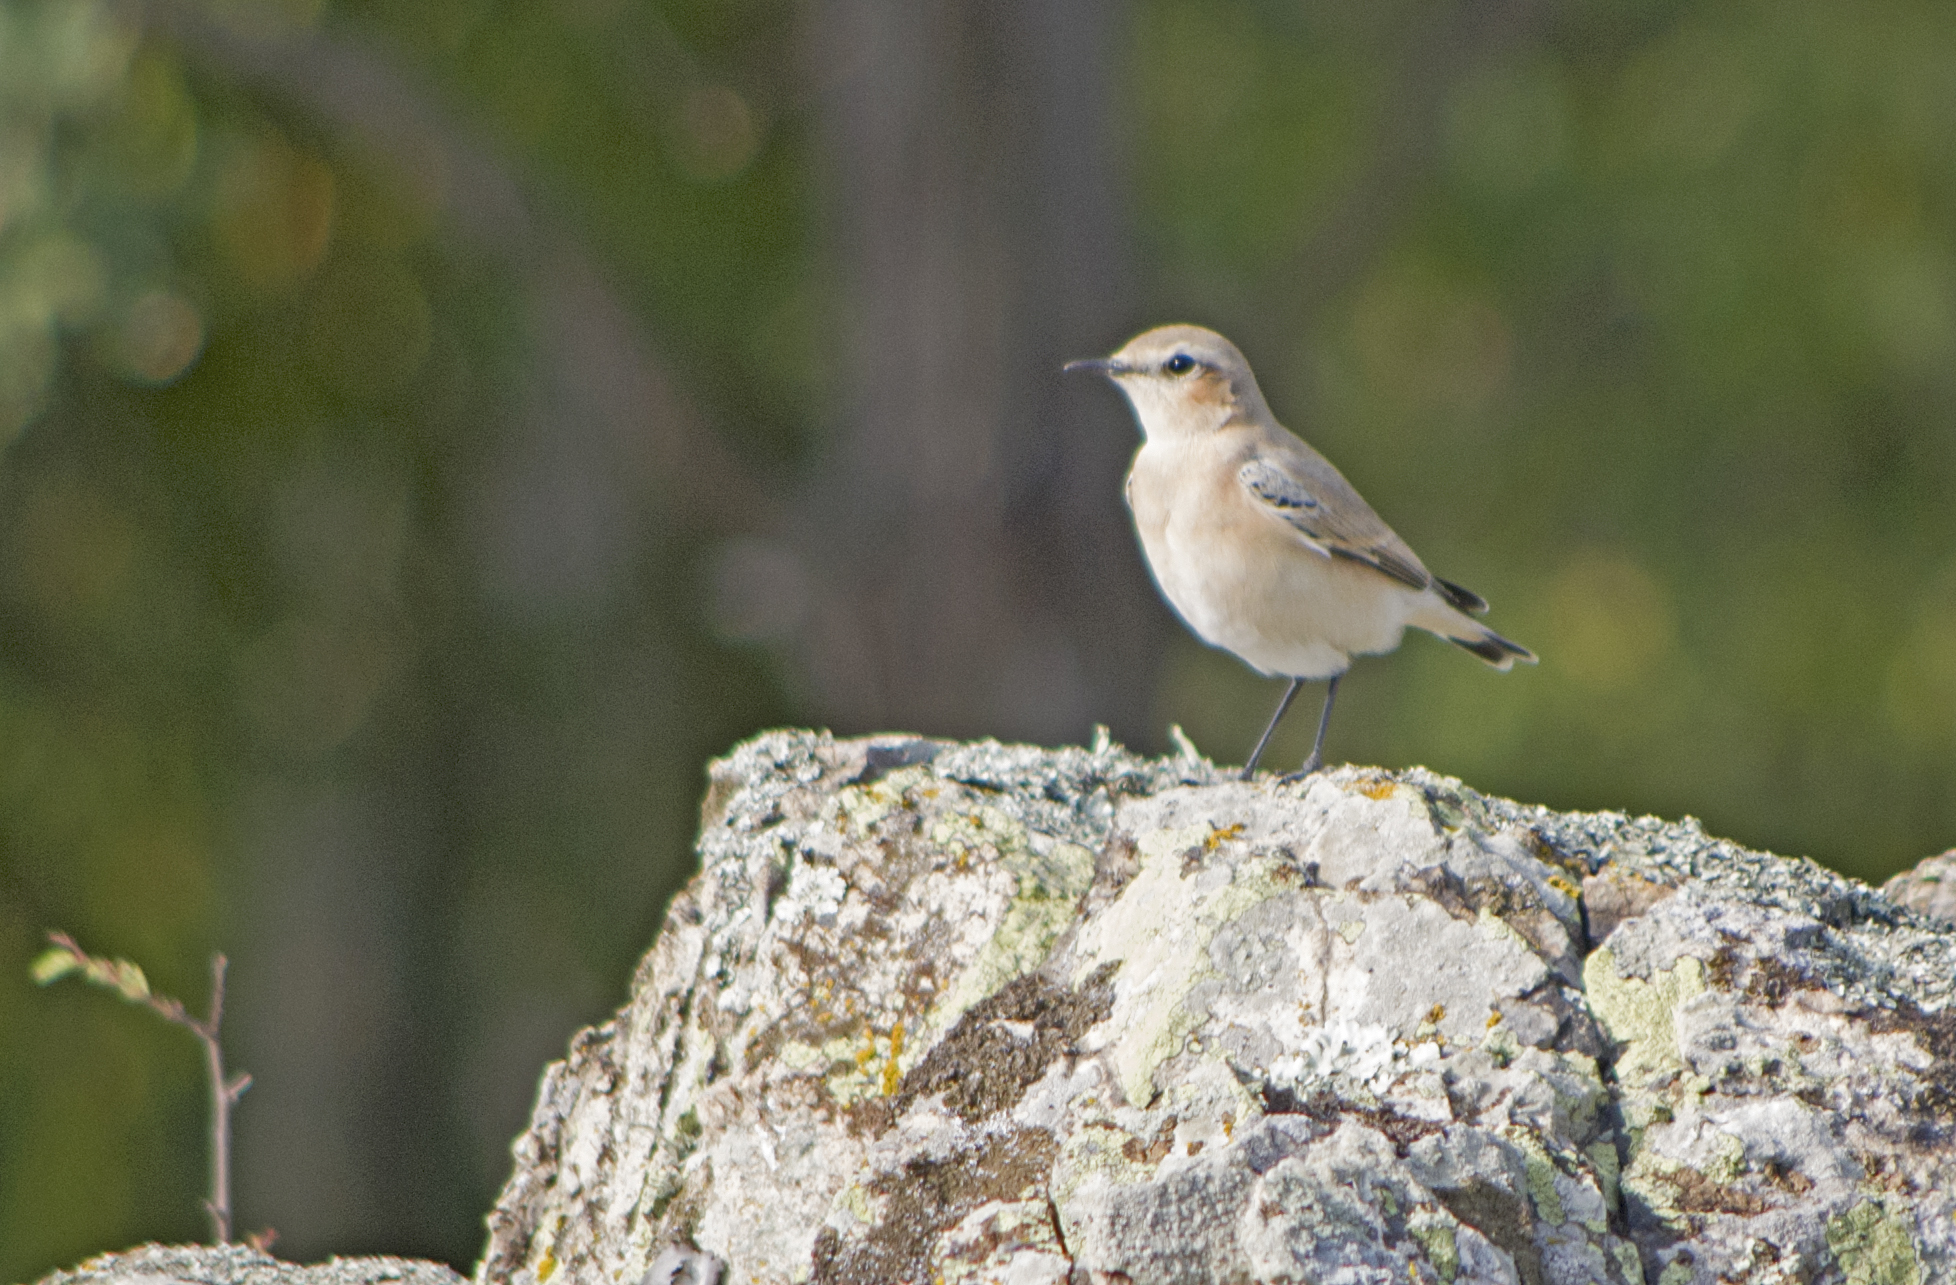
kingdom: Animalia
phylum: Chordata
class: Aves
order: Passeriformes
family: Muscicapidae
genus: Oenanthe
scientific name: Oenanthe oenanthe
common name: Northern wheatear
